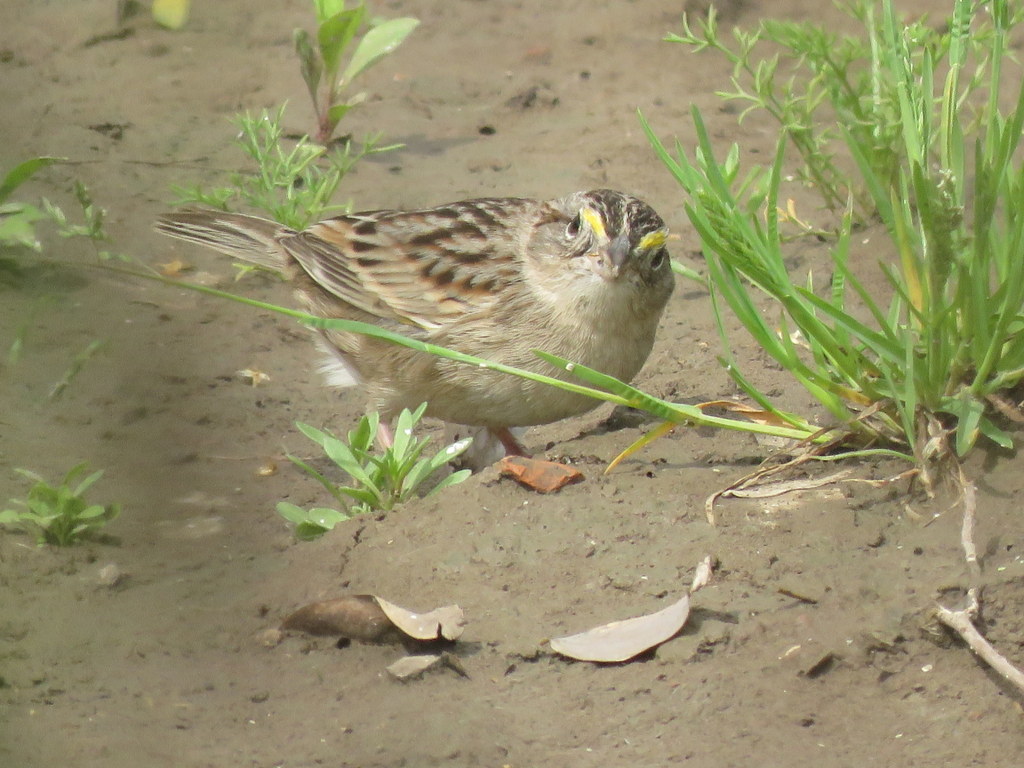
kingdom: Animalia
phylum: Chordata
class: Aves
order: Passeriformes
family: Passerellidae
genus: Ammodramus
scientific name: Ammodramus humeralis
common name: Grassland sparrow
